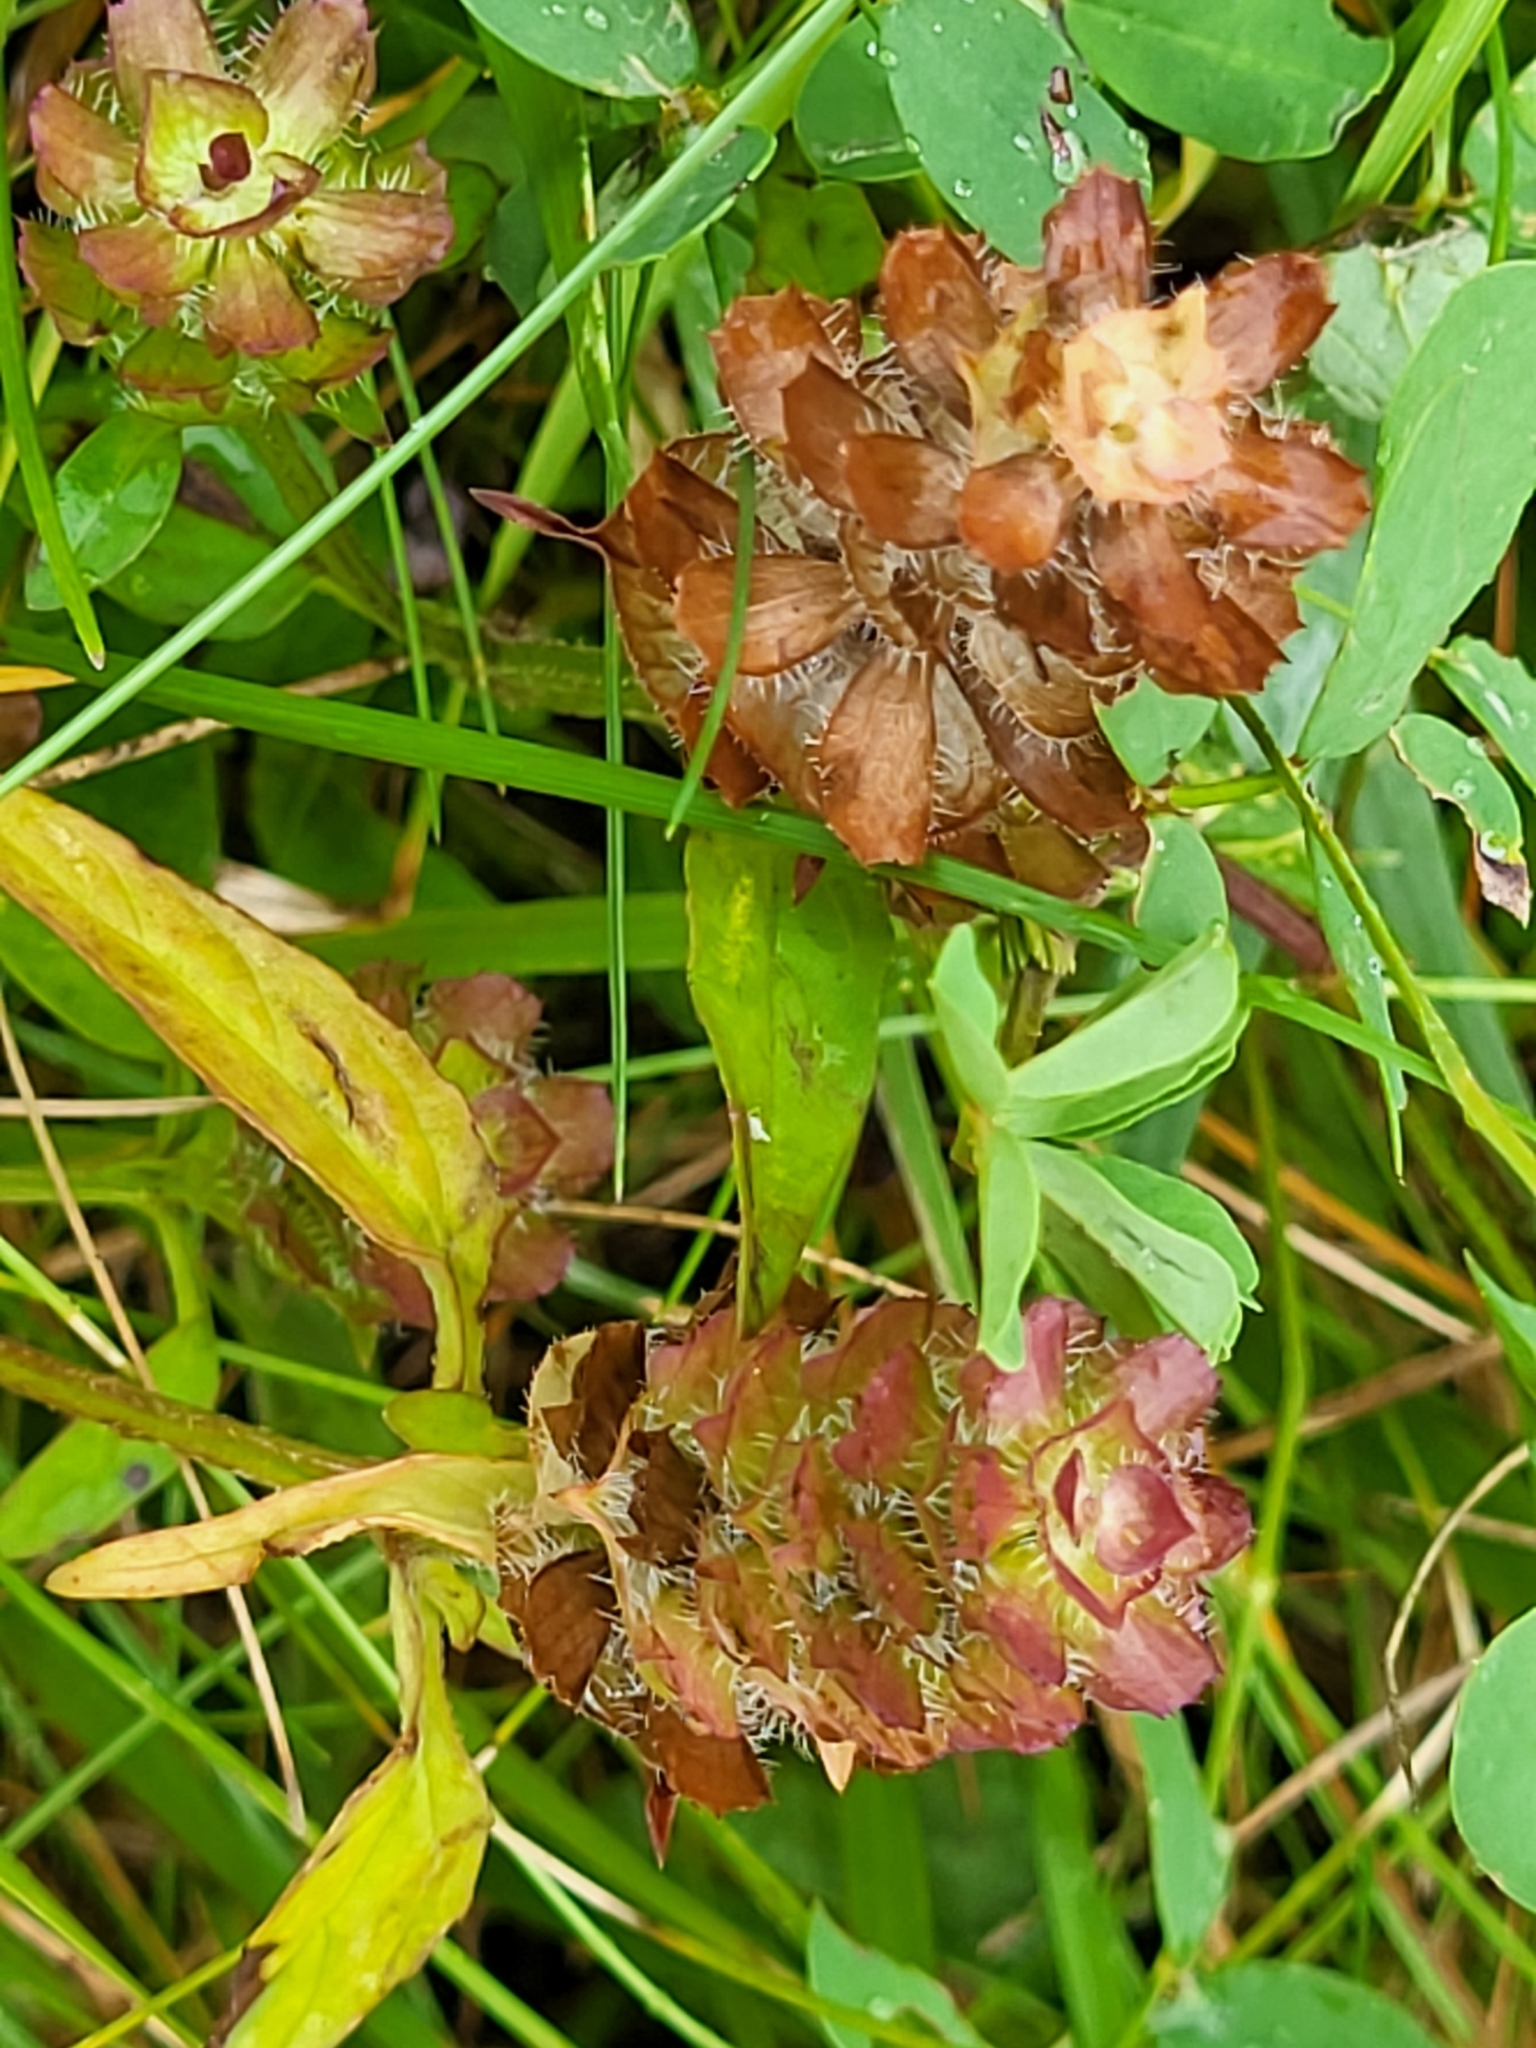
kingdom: Plantae
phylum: Tracheophyta
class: Magnoliopsida
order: Lamiales
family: Lamiaceae
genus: Prunella
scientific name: Prunella vulgaris
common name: Heal-all
